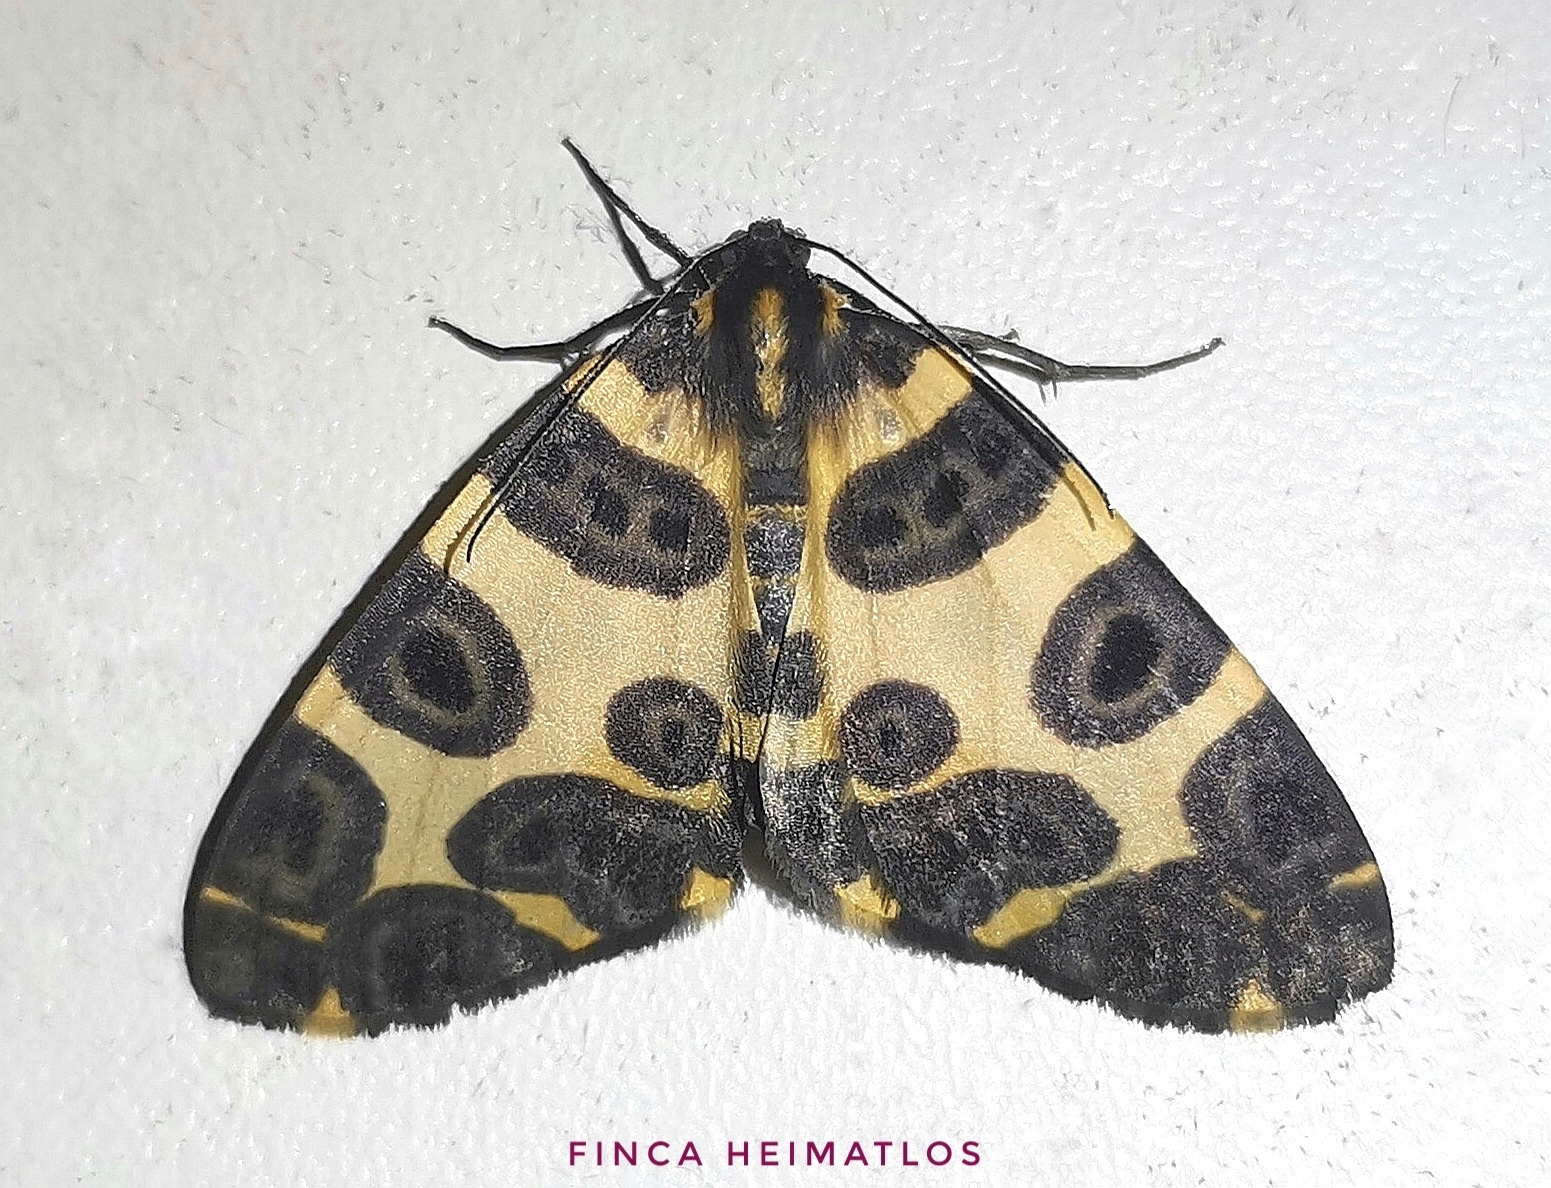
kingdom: Animalia
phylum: Arthropoda
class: Insecta
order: Lepidoptera
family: Geometridae
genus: Pantherodes
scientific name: Pantherodes conglomerata
